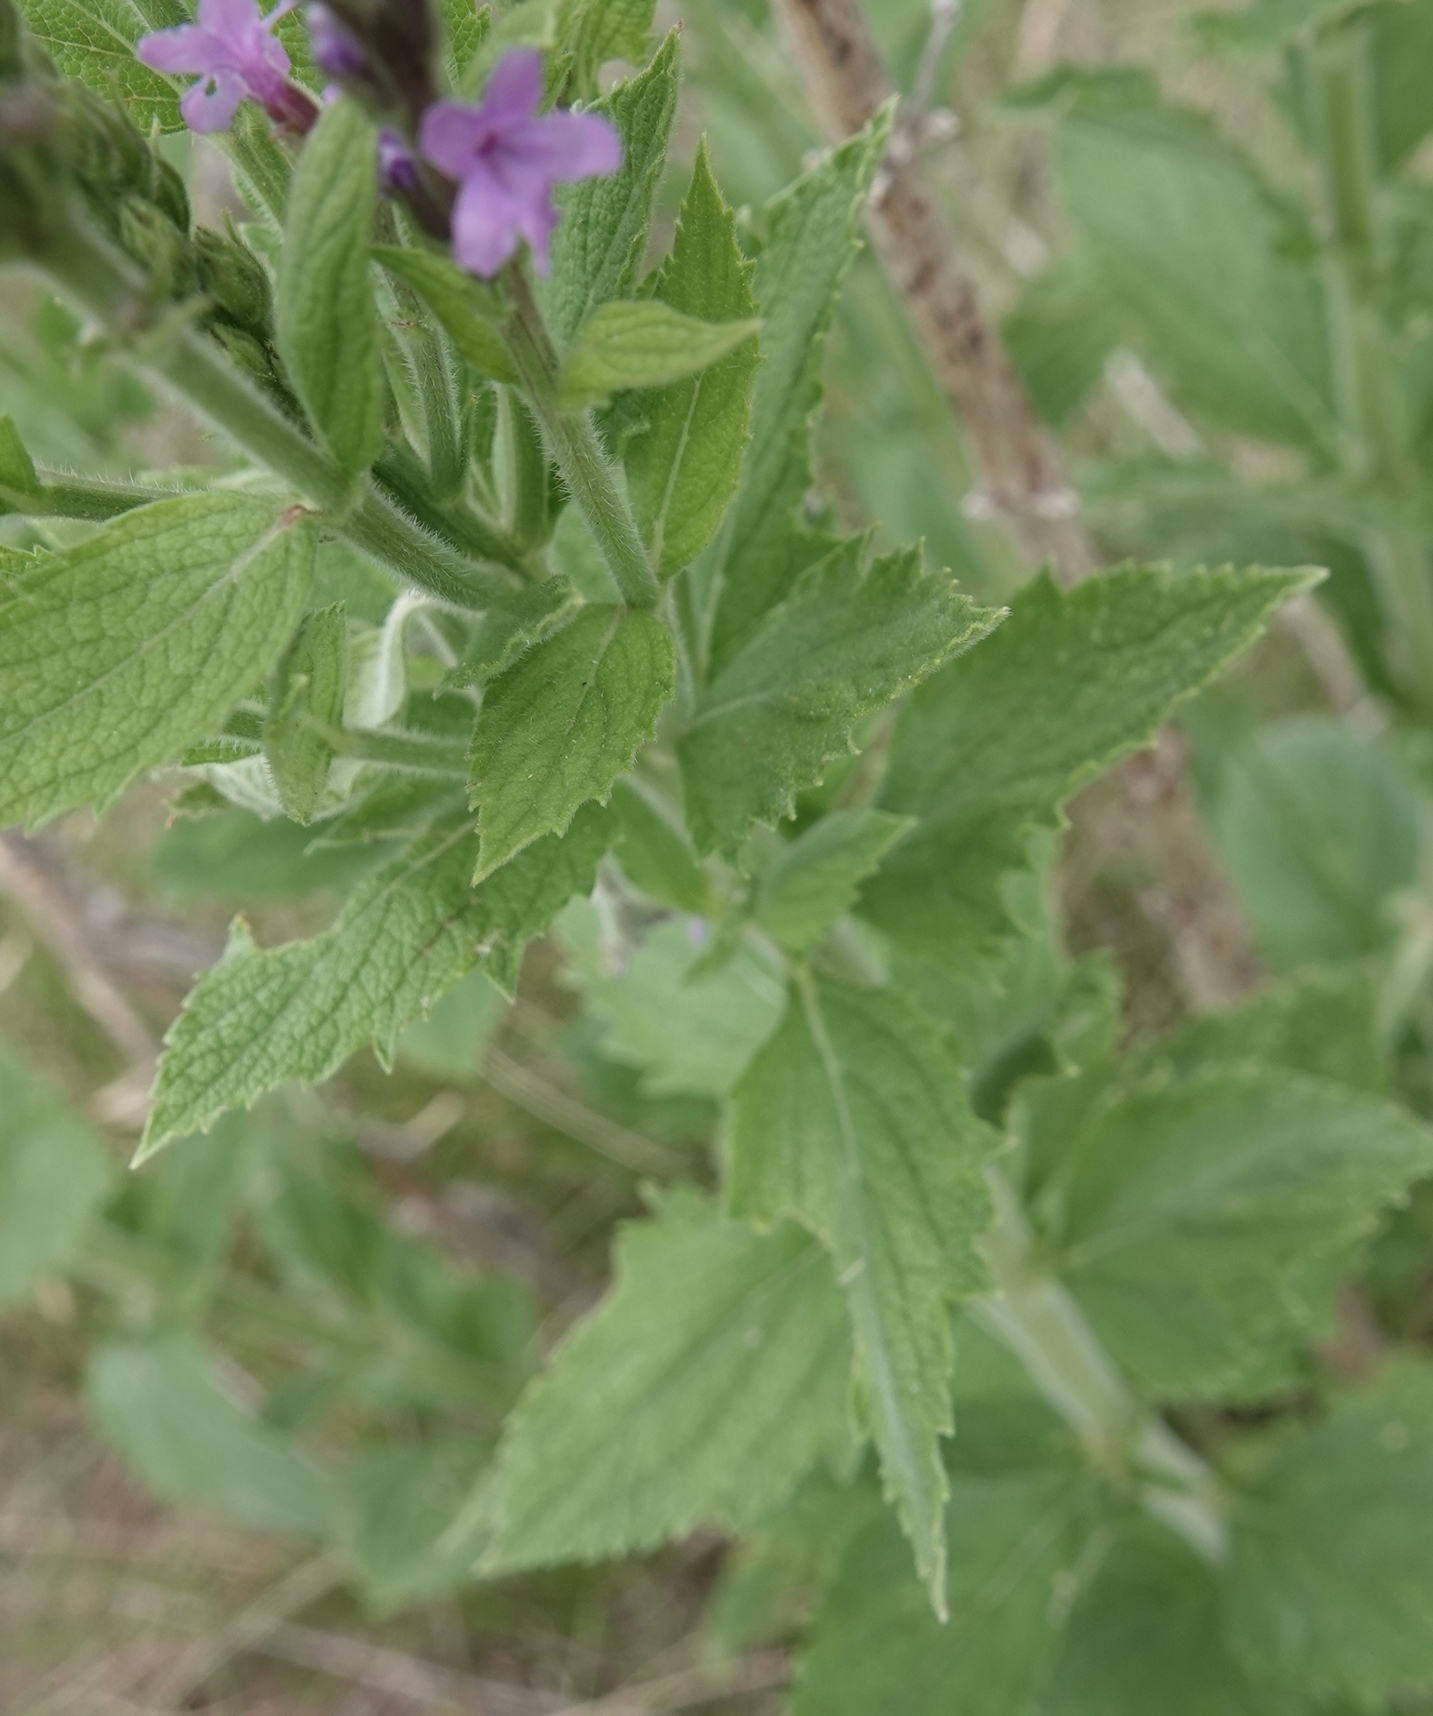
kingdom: Plantae
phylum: Tracheophyta
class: Magnoliopsida
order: Lamiales
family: Verbenaceae
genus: Verbena
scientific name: Verbena stricta
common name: Hoary vervain
